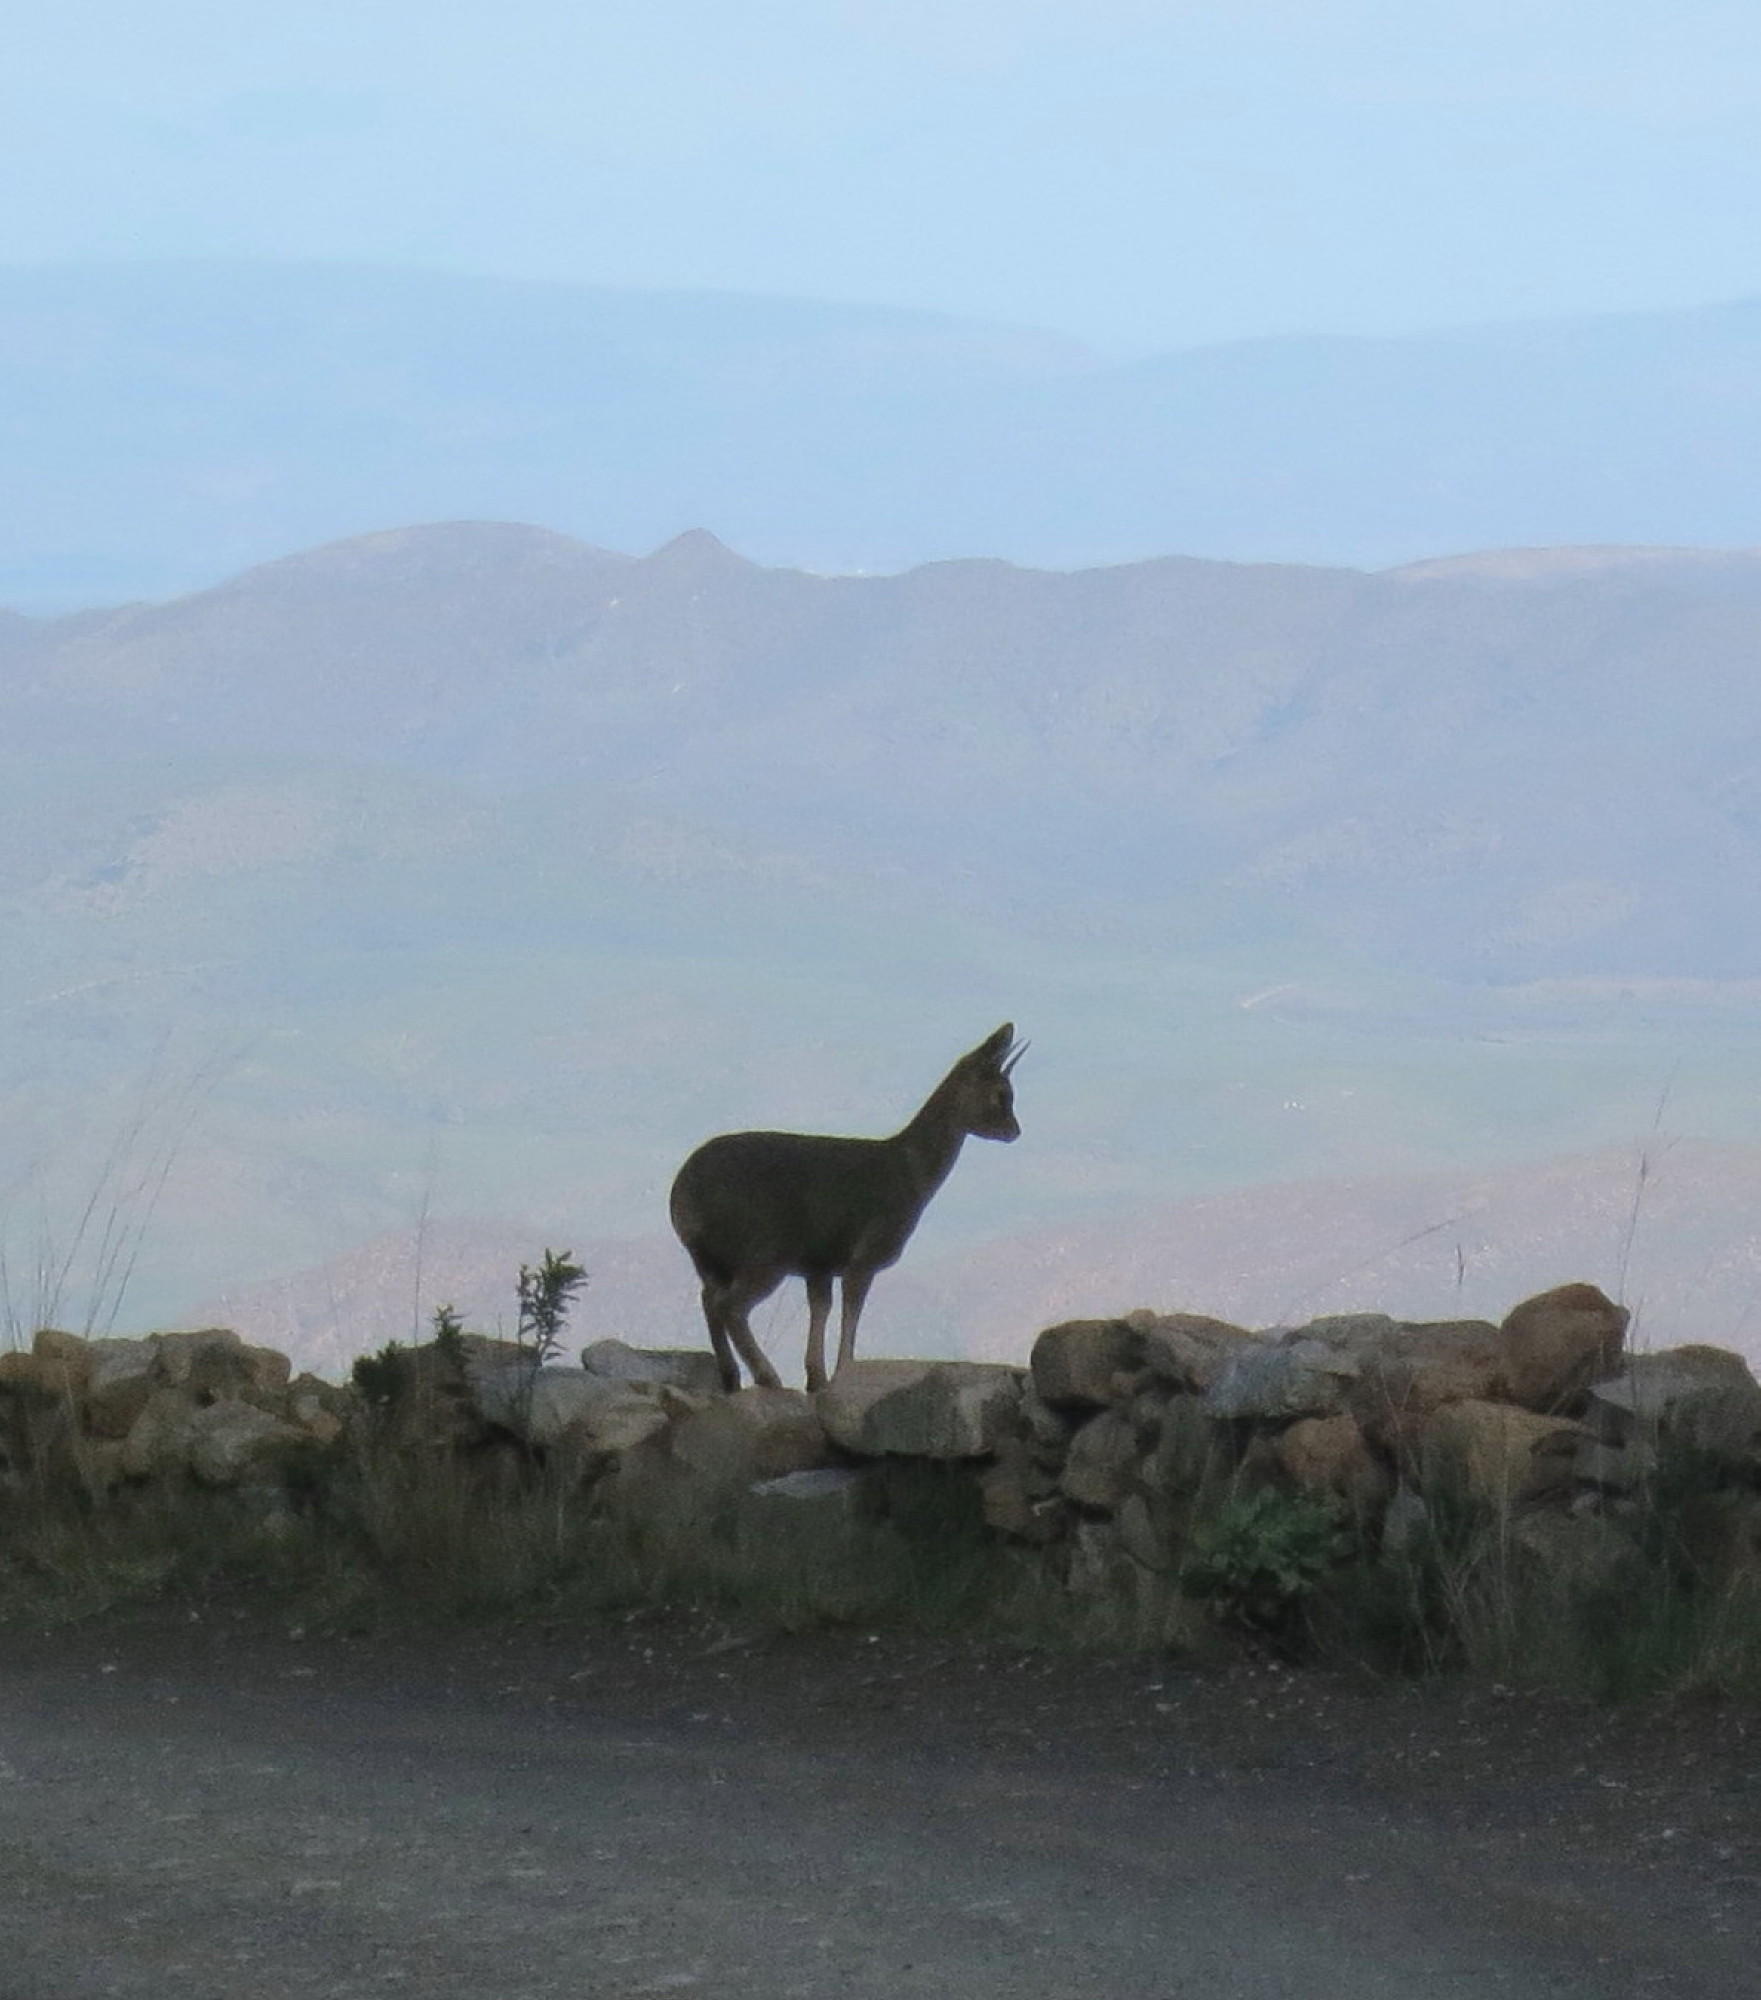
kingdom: Animalia
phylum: Chordata
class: Mammalia
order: Artiodactyla
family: Bovidae
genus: Oreotragus
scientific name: Oreotragus oreotragus
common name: Klipspringer
